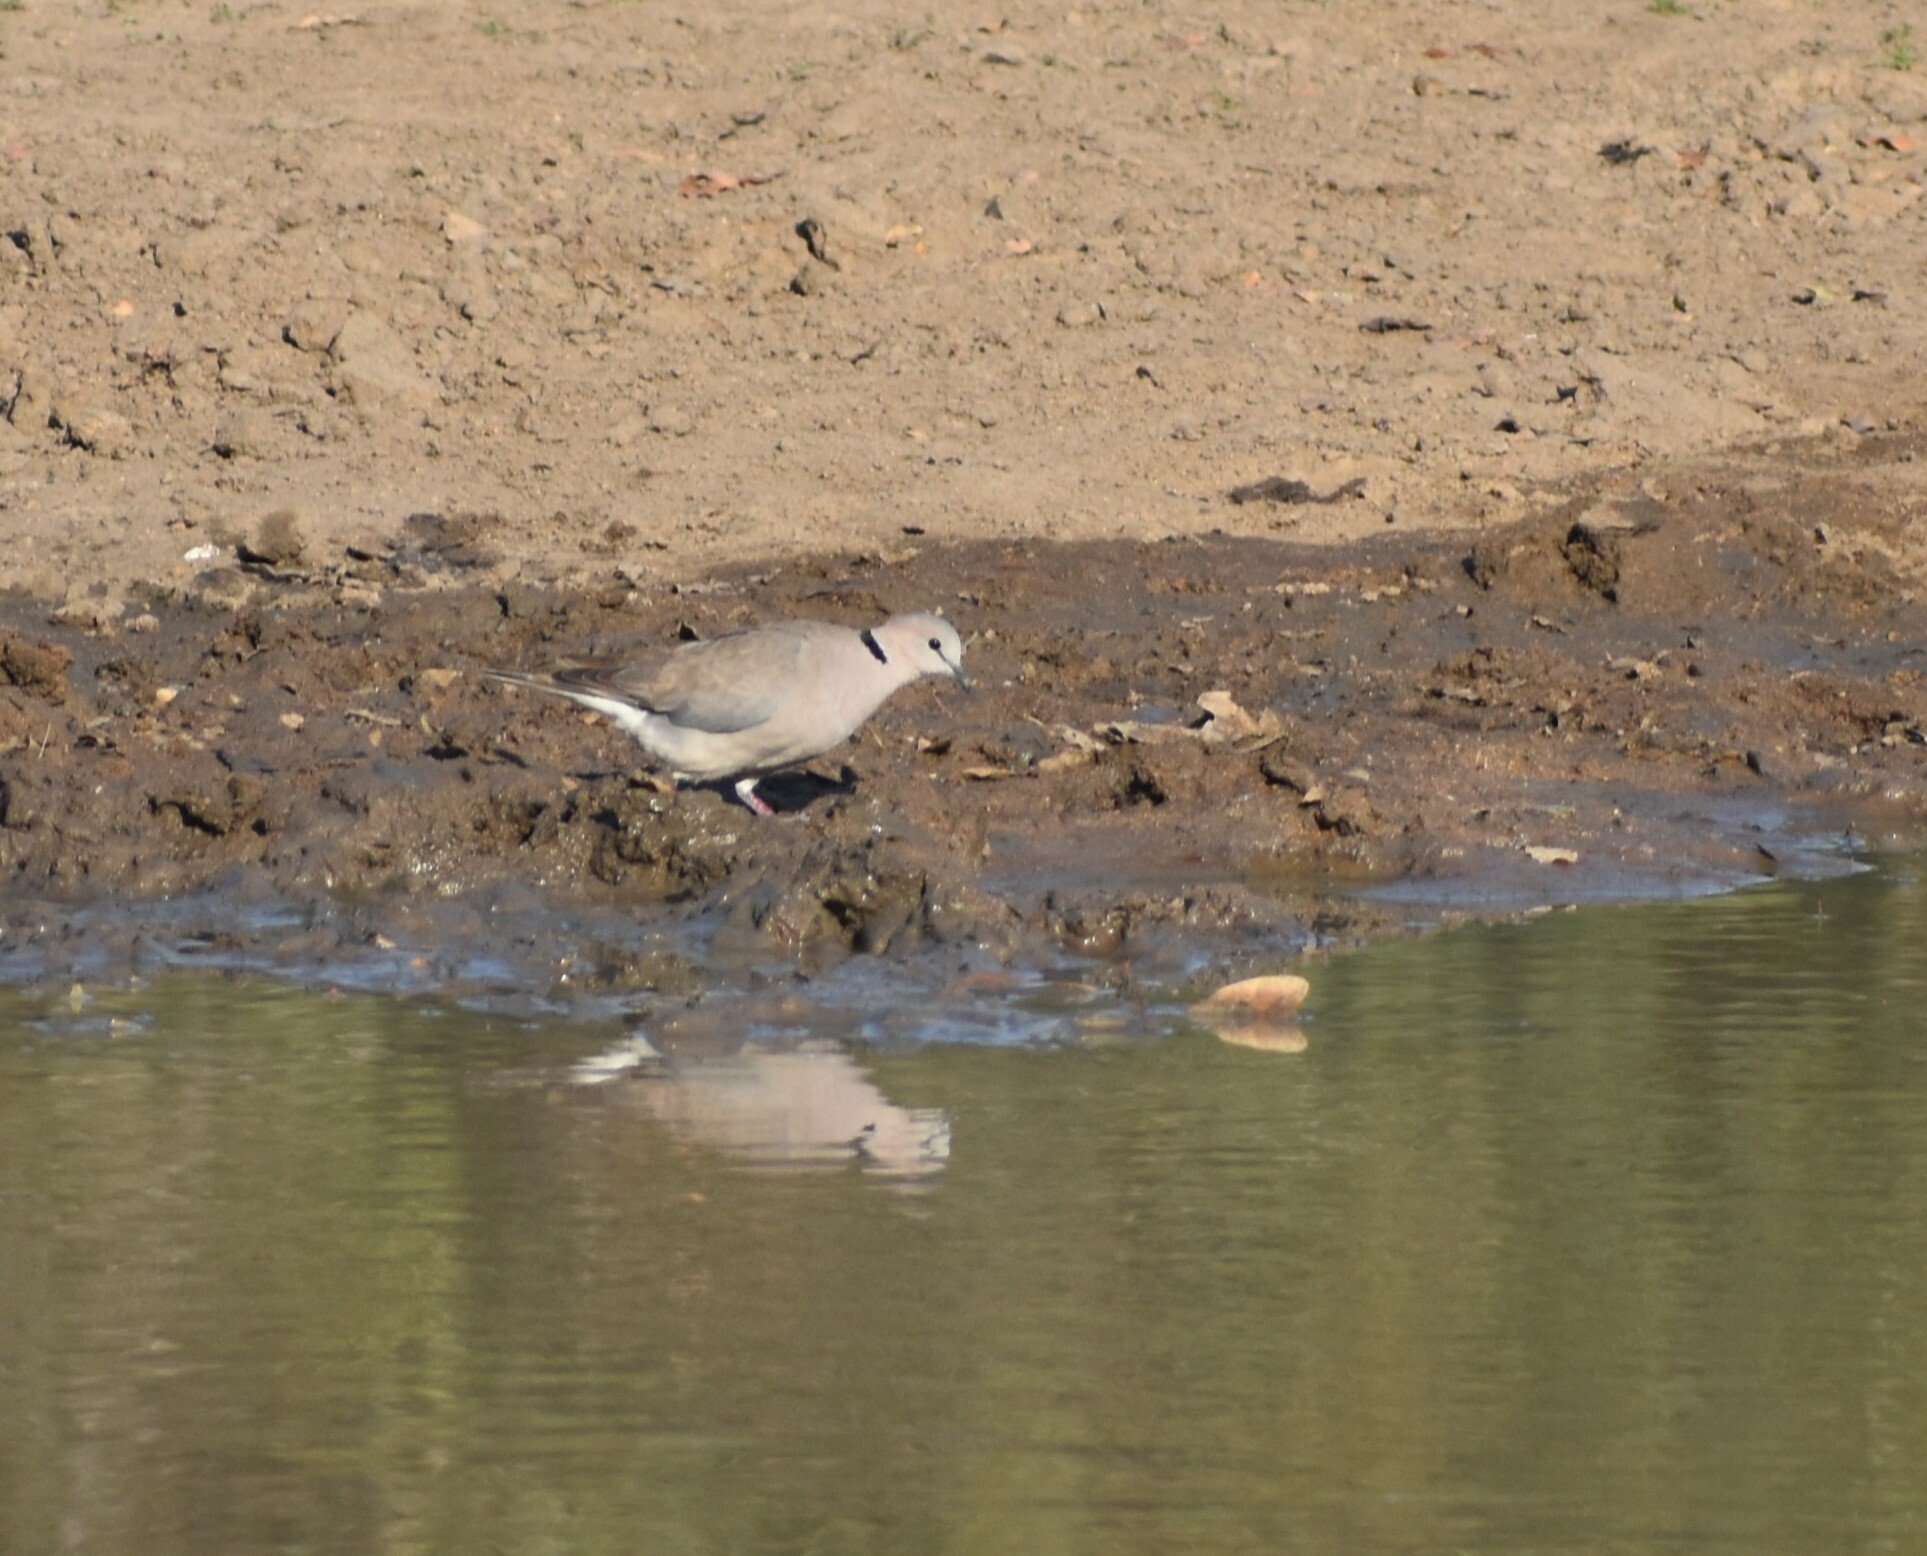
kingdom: Animalia
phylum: Chordata
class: Aves
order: Columbiformes
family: Columbidae
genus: Streptopelia
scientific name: Streptopelia capicola
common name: Ring-necked dove
